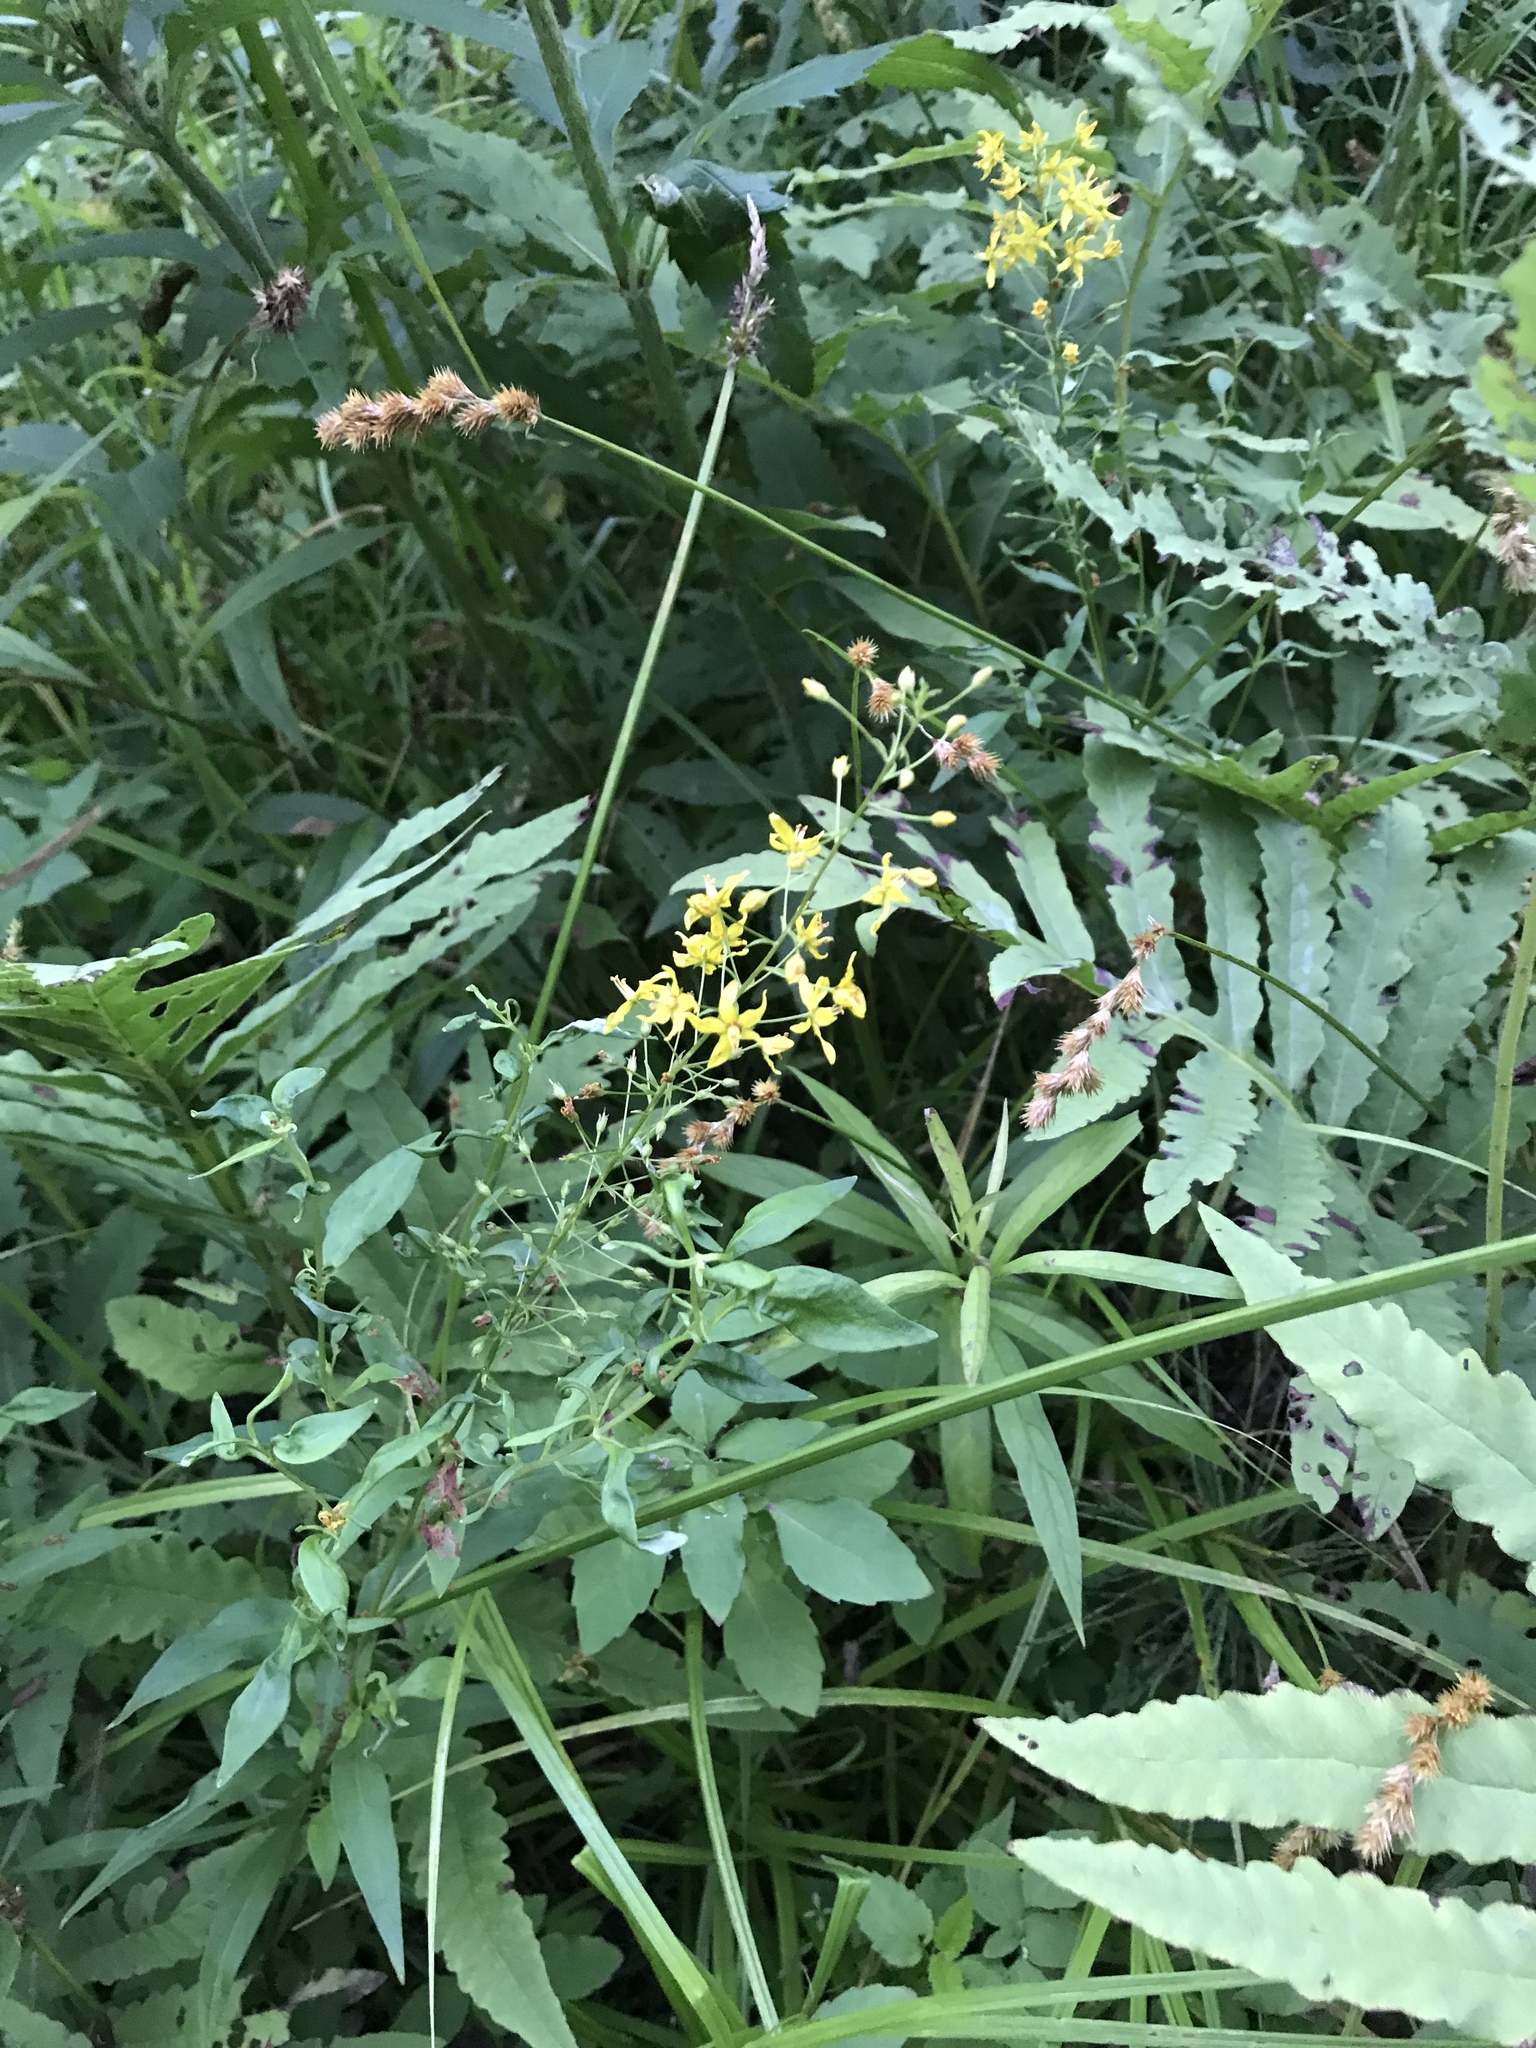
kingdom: Plantae
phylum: Tracheophyta
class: Magnoliopsida
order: Ericales
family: Primulaceae
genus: Lysimachia
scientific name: Lysimachia terrestris
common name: Lake loosestrife
